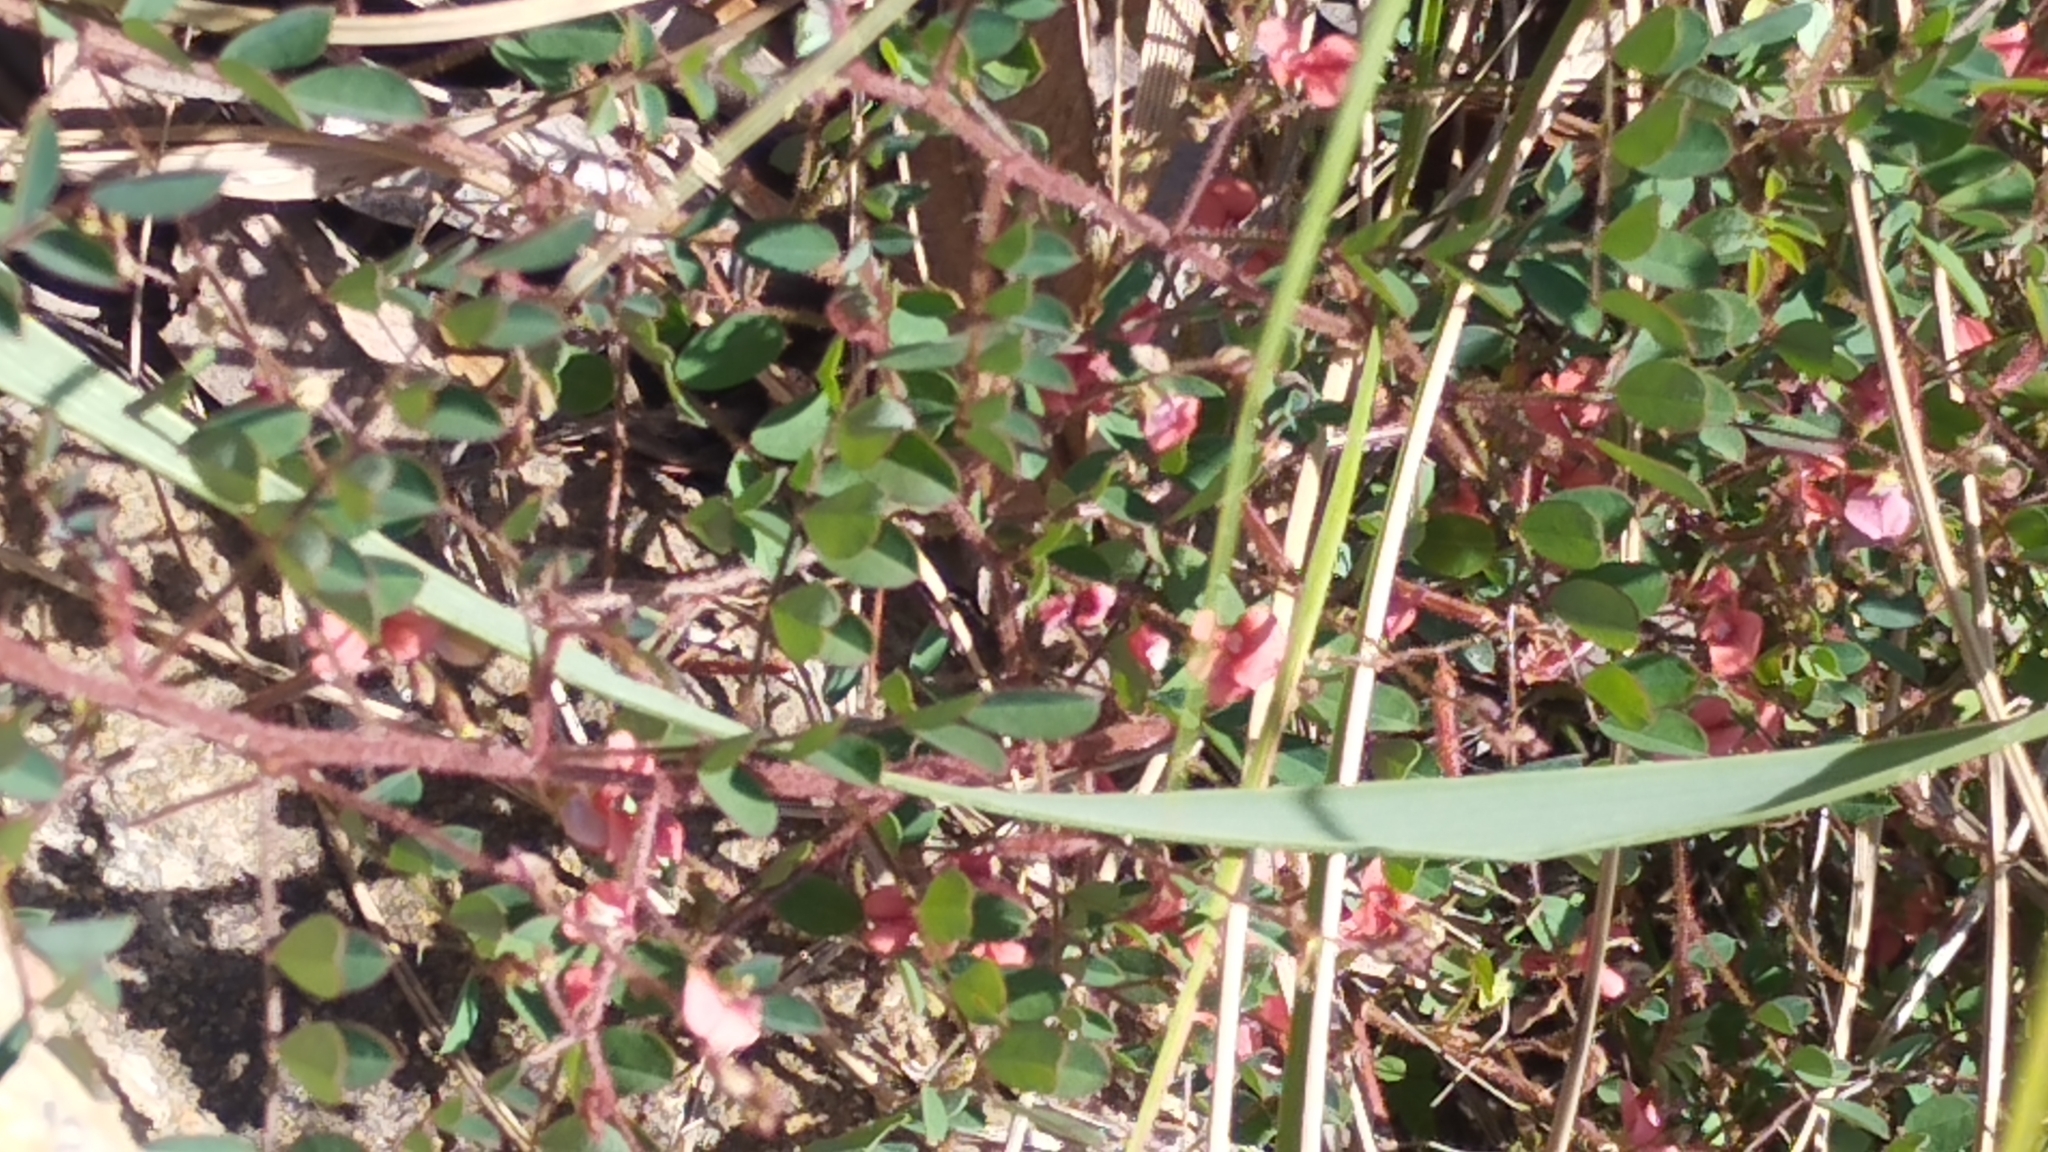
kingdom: Plantae
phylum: Tracheophyta
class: Magnoliopsida
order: Fabales
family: Fabaceae
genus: Indigofera
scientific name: Indigofera adenoides
